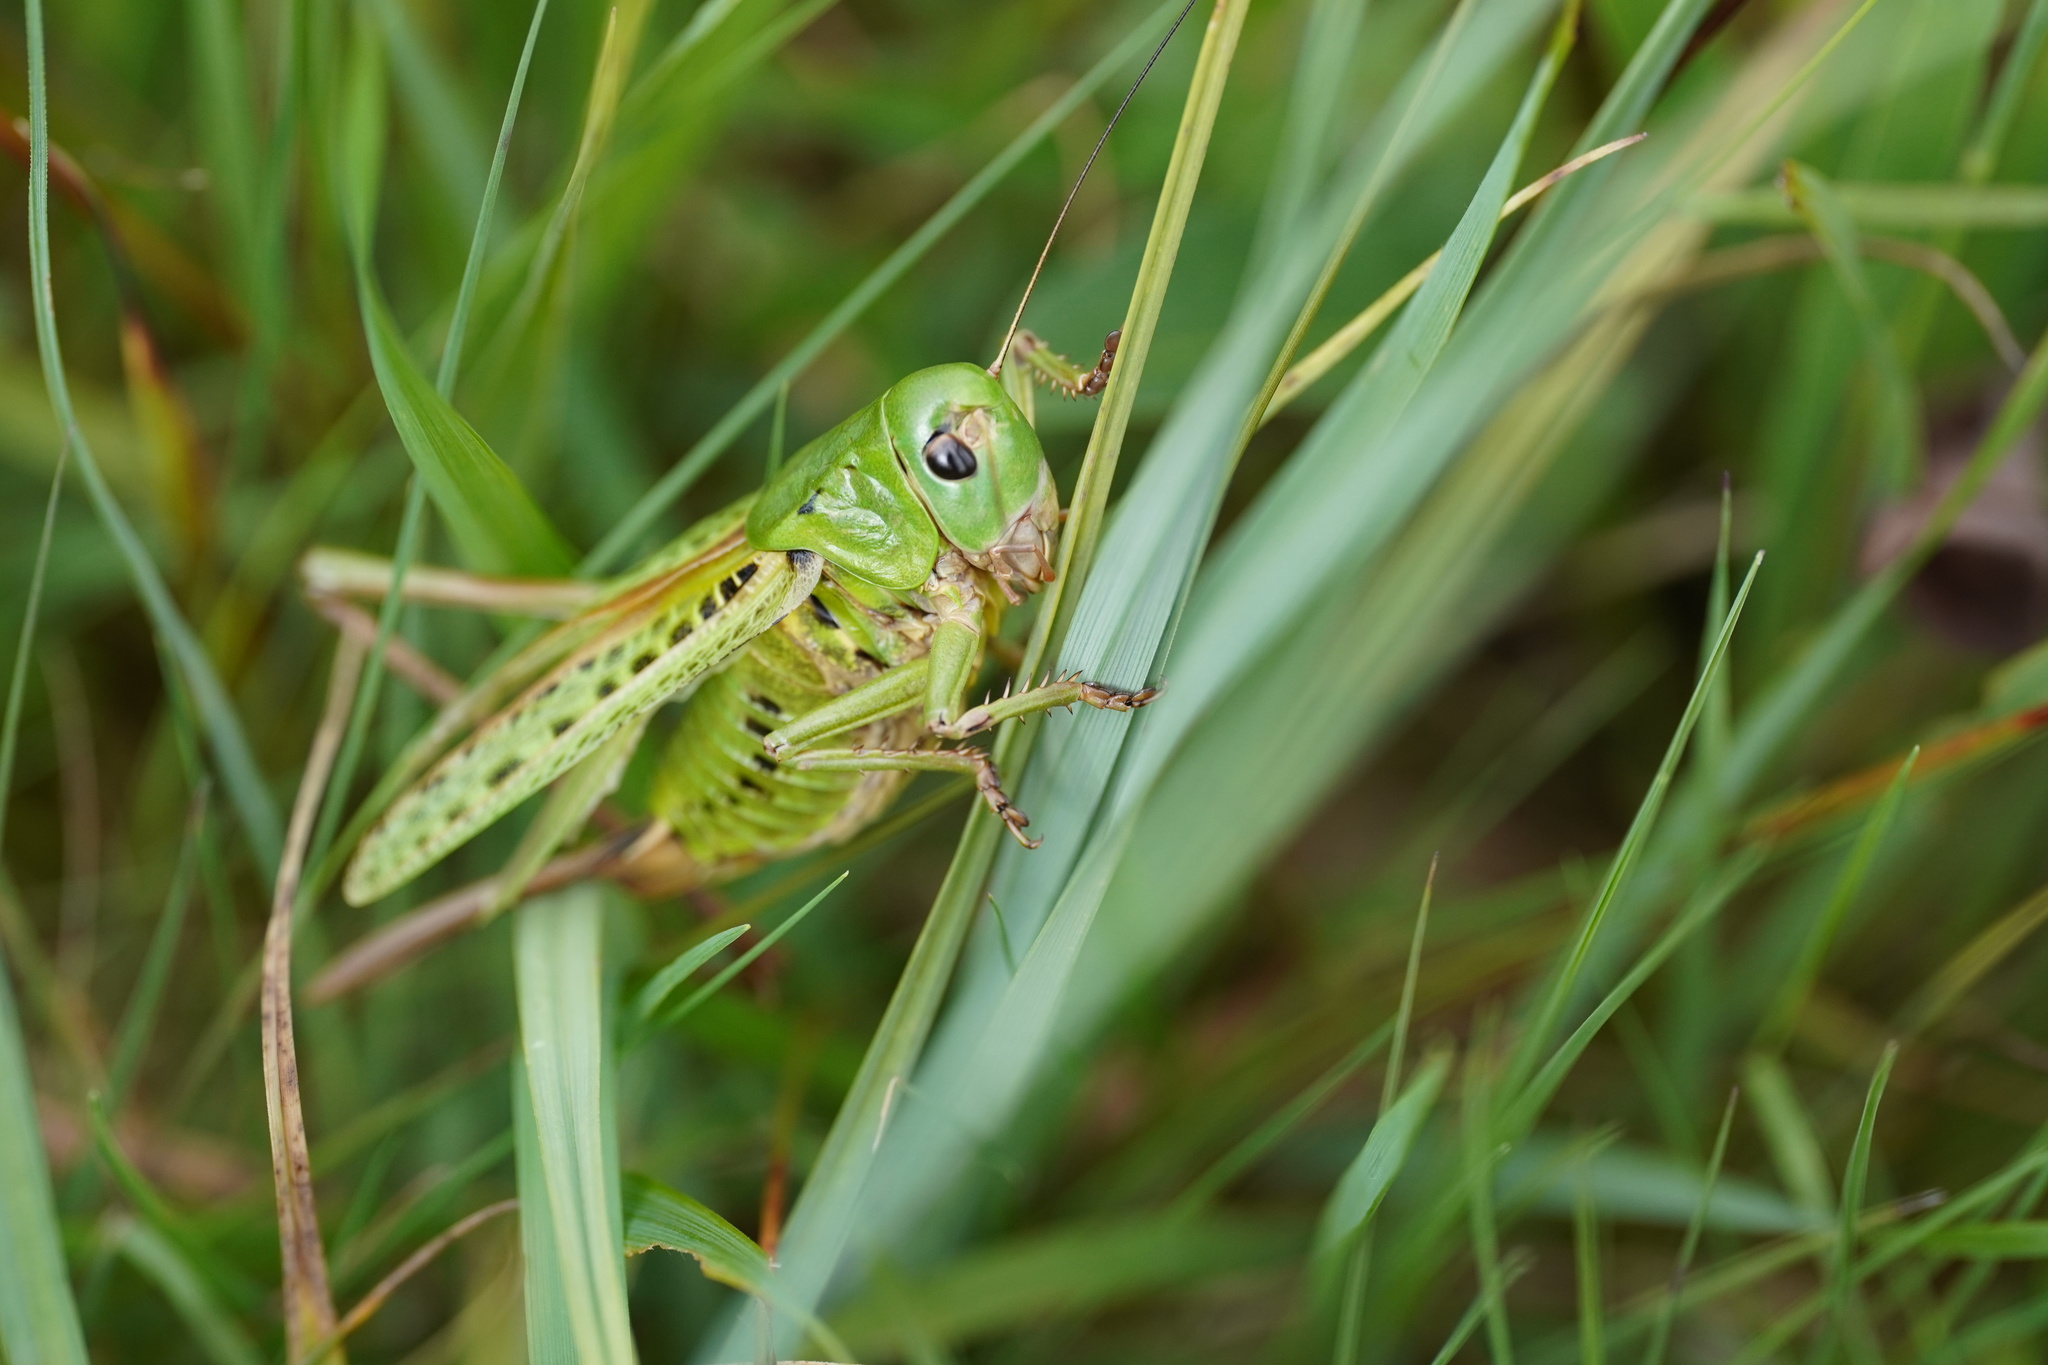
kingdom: Animalia
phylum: Arthropoda
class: Insecta
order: Orthoptera
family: Tettigoniidae
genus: Decticus
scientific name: Decticus verrucivorus
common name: Wart-biter
